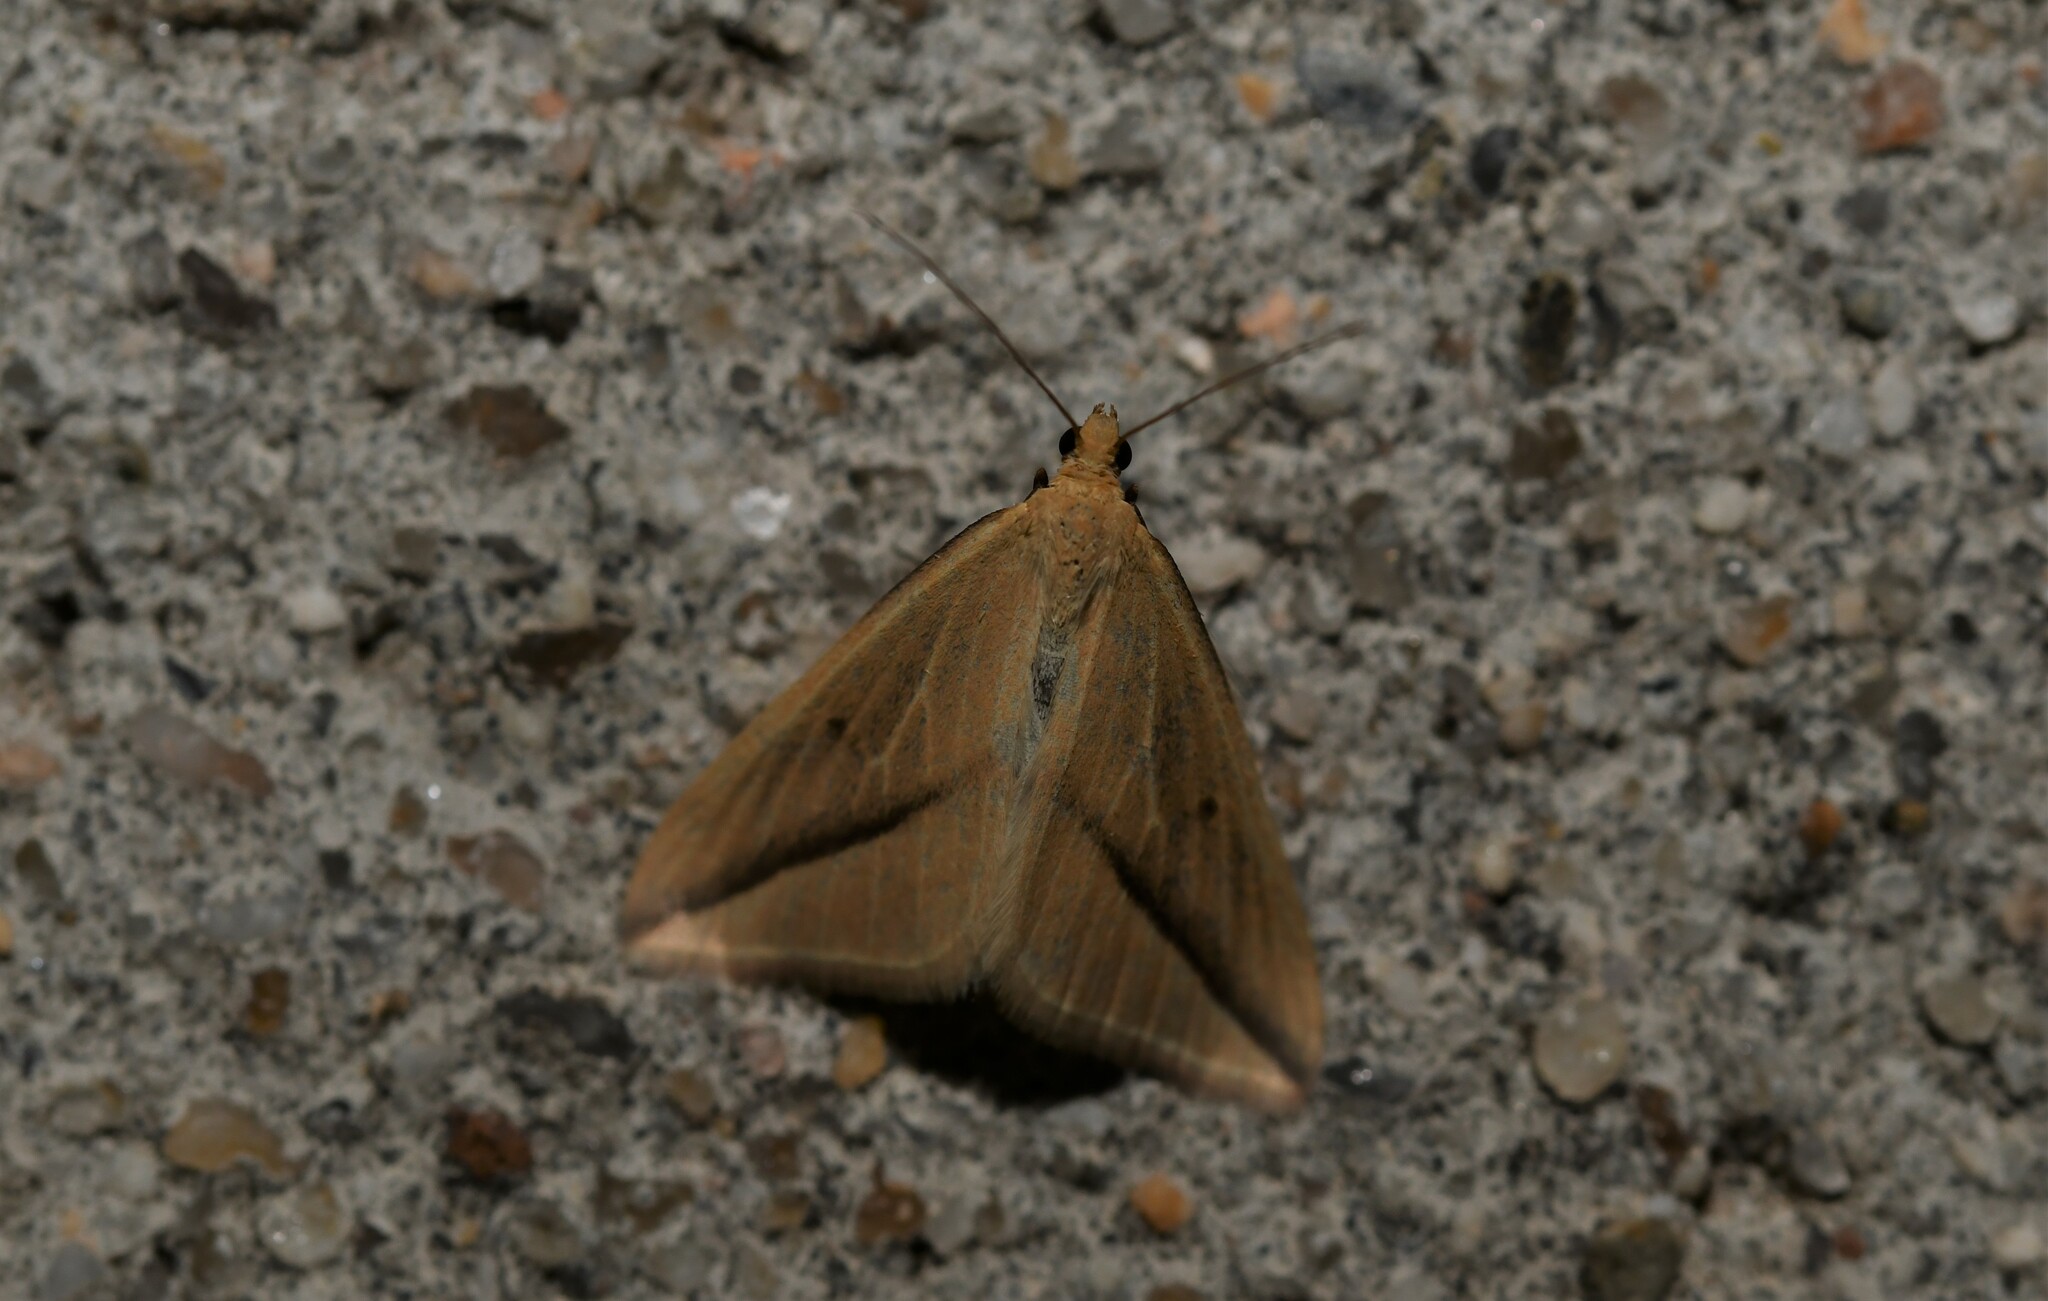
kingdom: Animalia
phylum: Arthropoda
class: Insecta
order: Lepidoptera
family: Geometridae
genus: Rhodometra
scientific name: Rhodometra sacraria
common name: Vestal
